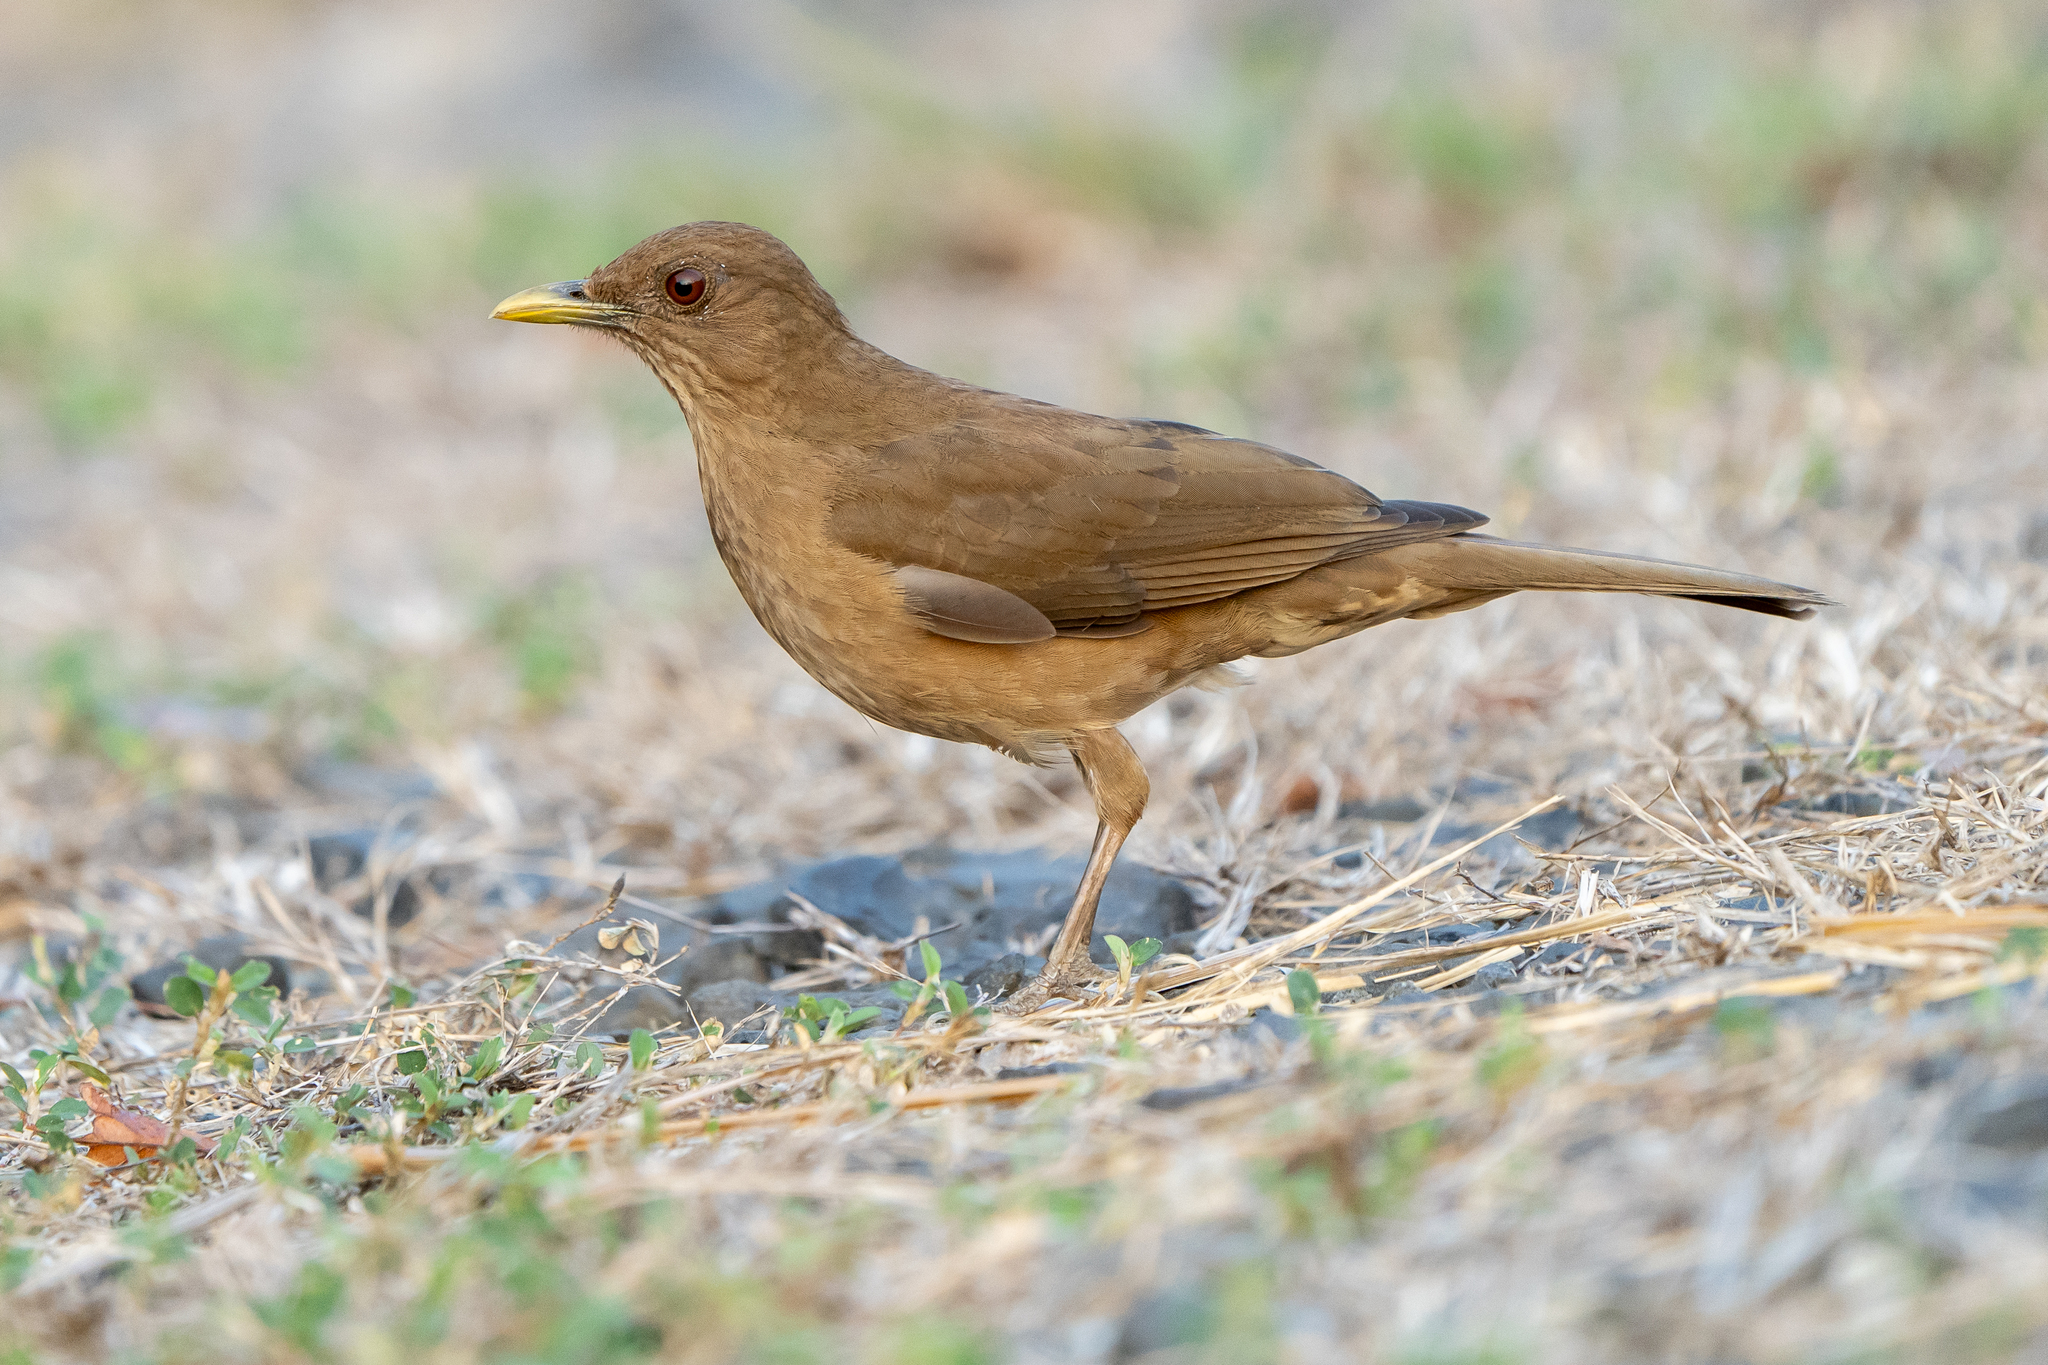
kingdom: Animalia
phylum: Chordata
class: Aves
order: Passeriformes
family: Turdidae
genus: Turdus
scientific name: Turdus grayi
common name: Clay-colored thrush
